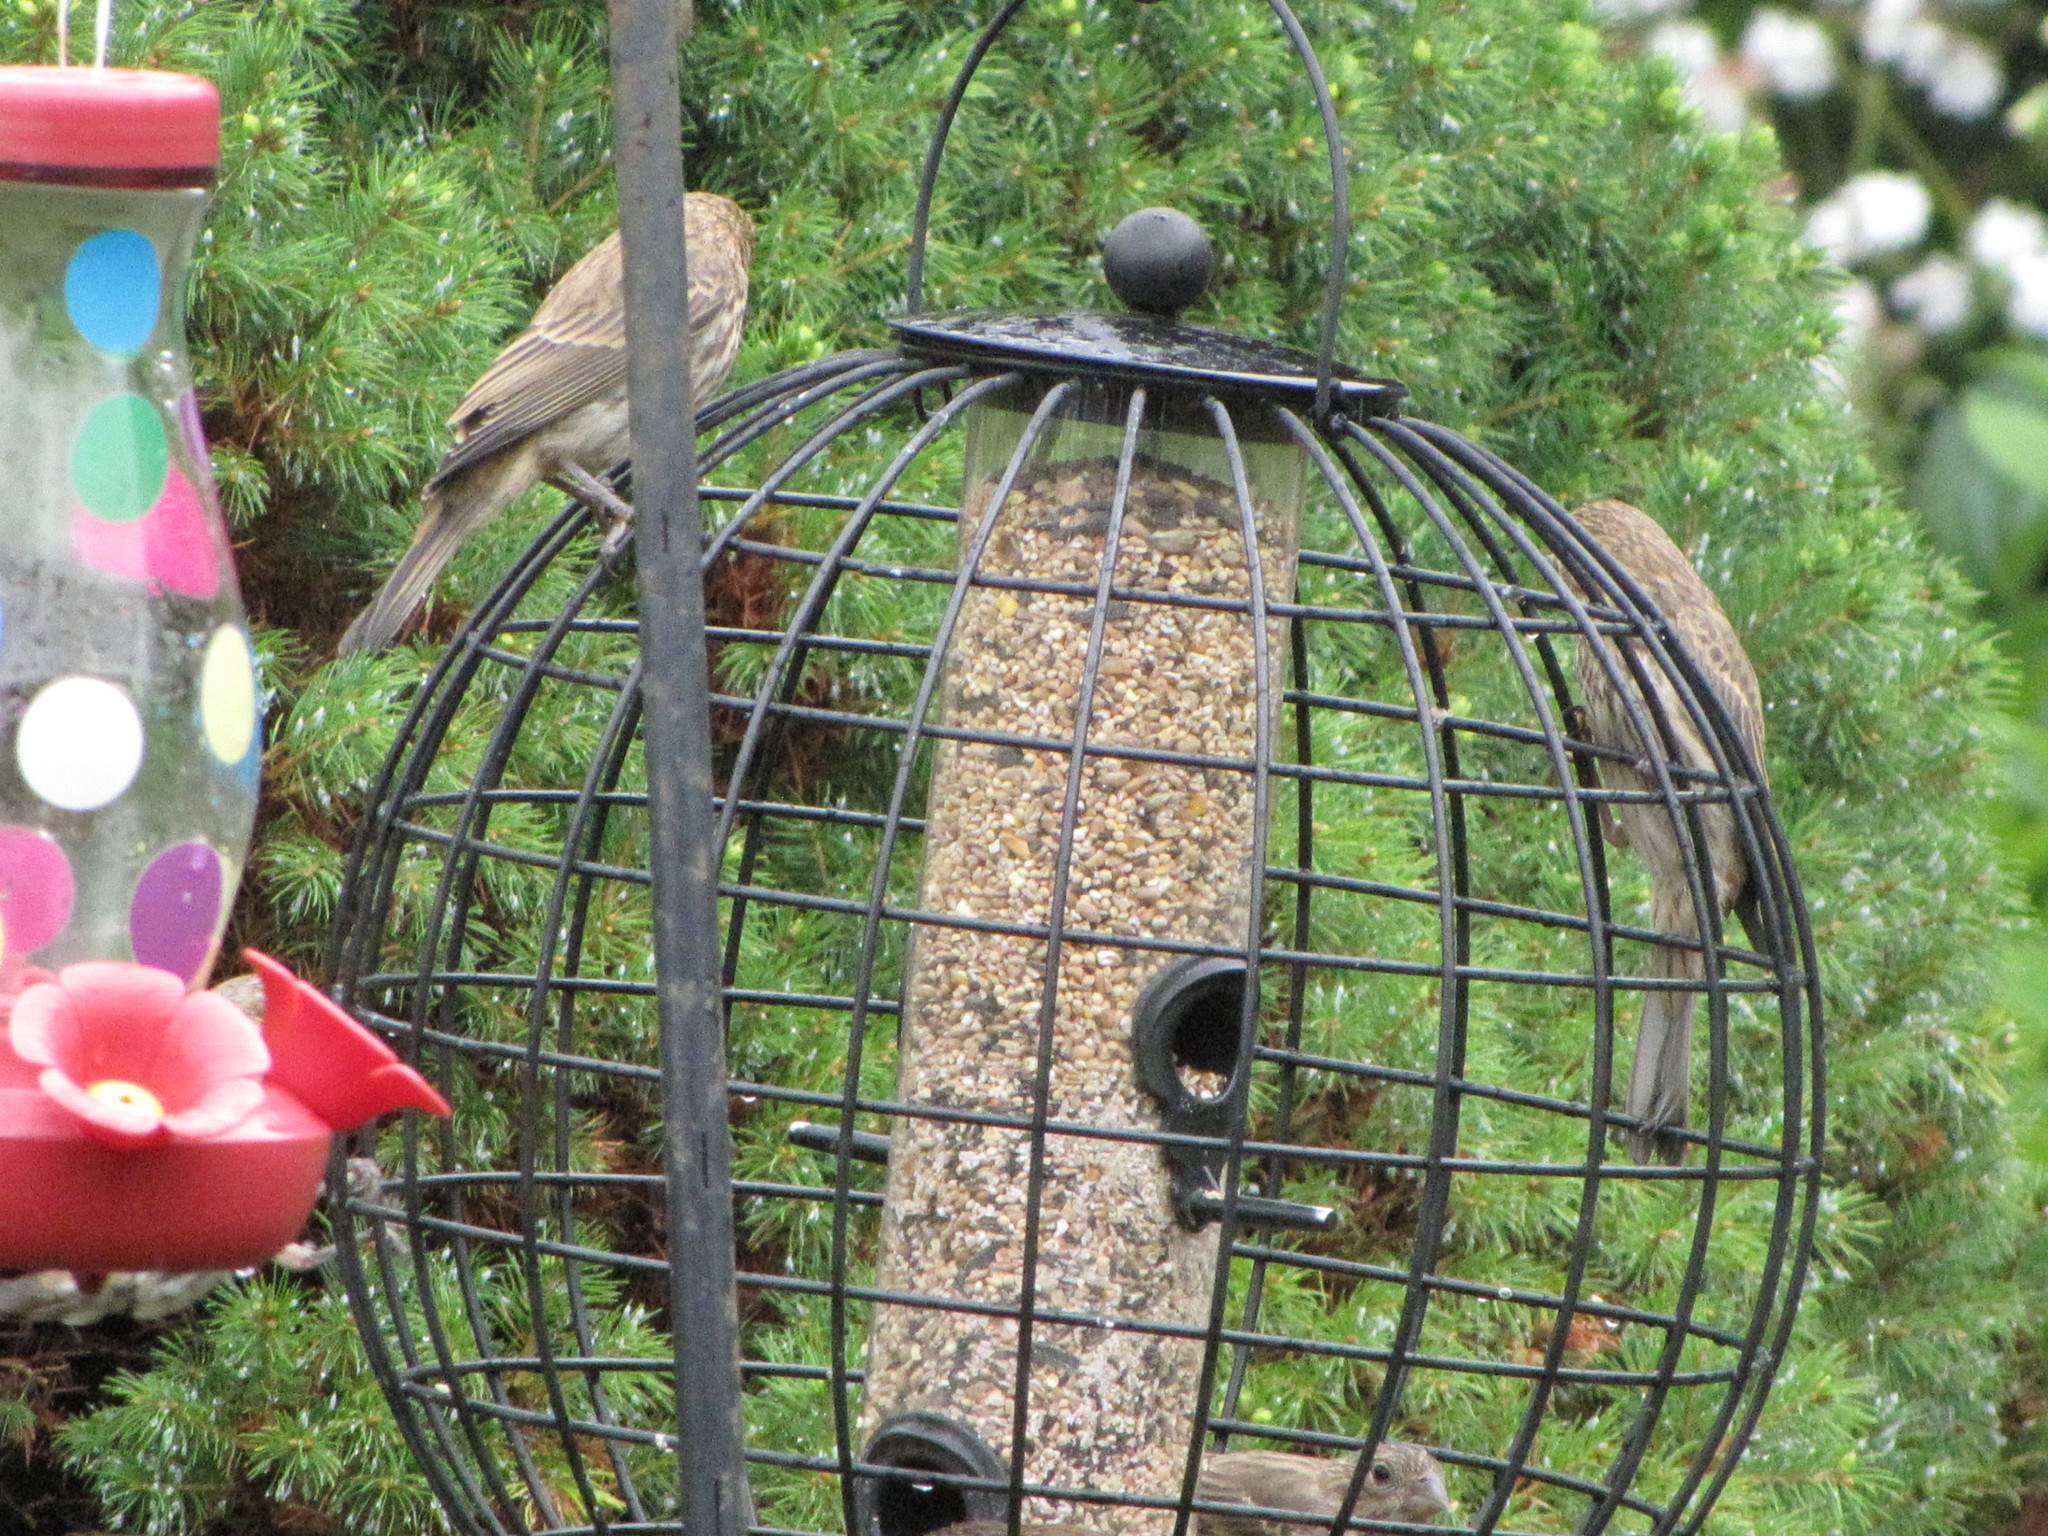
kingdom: Animalia
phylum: Chordata
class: Aves
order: Passeriformes
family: Fringillidae
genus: Haemorhous
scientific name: Haemorhous mexicanus
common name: House finch
